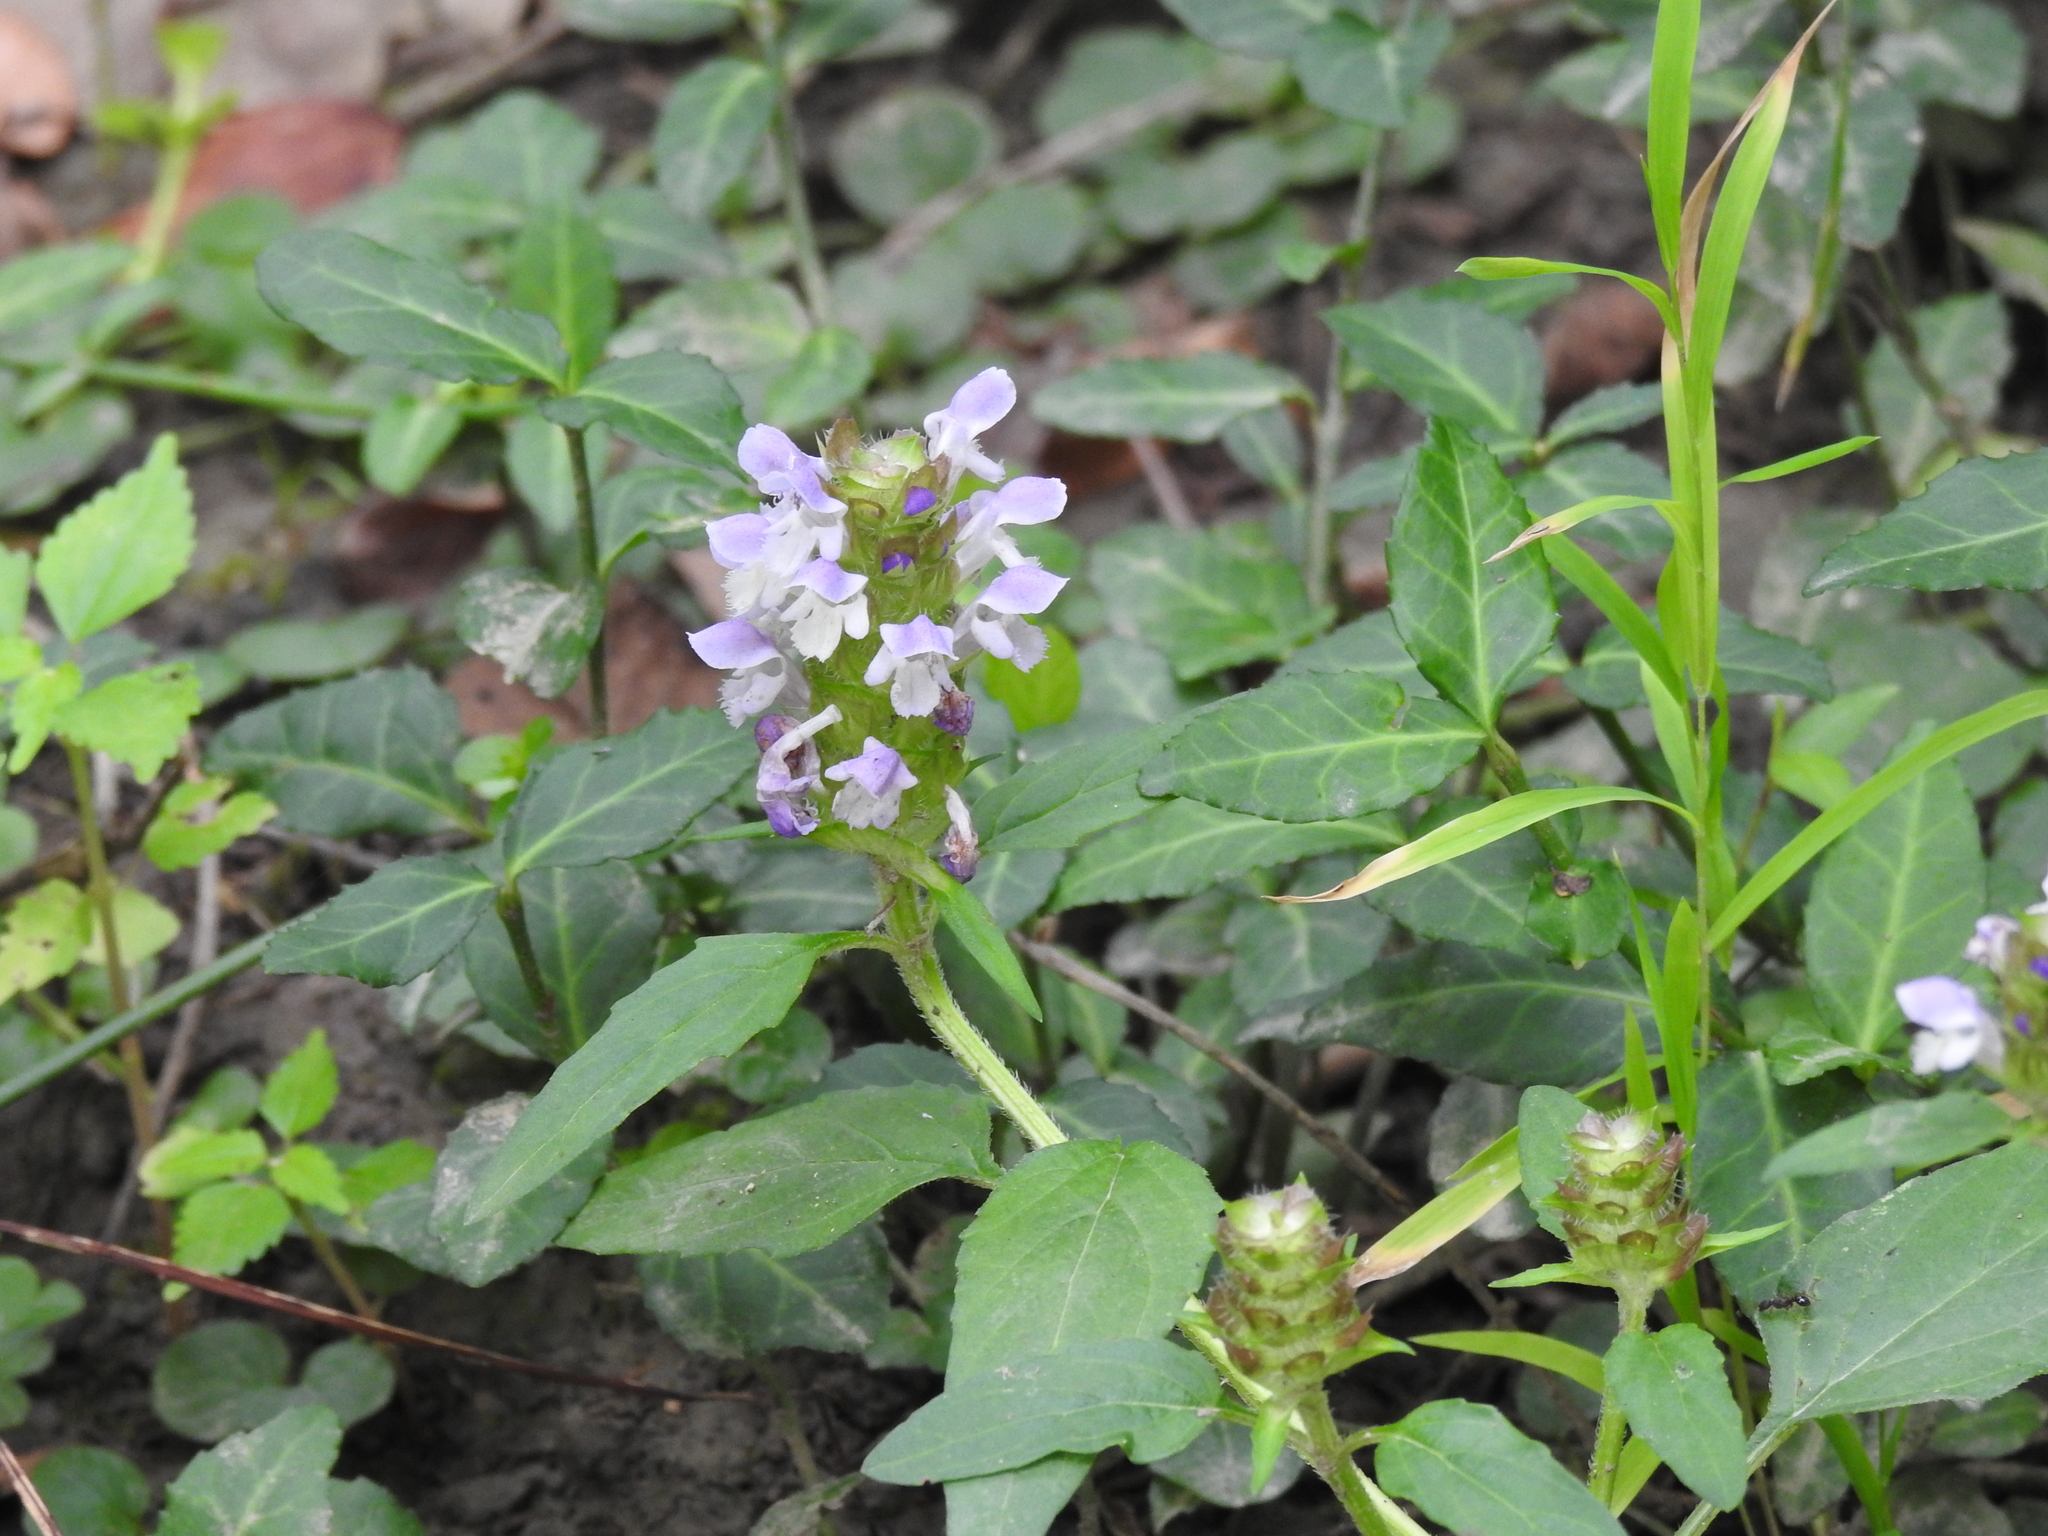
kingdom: Plantae
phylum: Tracheophyta
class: Magnoliopsida
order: Celastrales
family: Celastraceae
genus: Euonymus
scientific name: Euonymus fortunei
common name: Climbing euonymus
